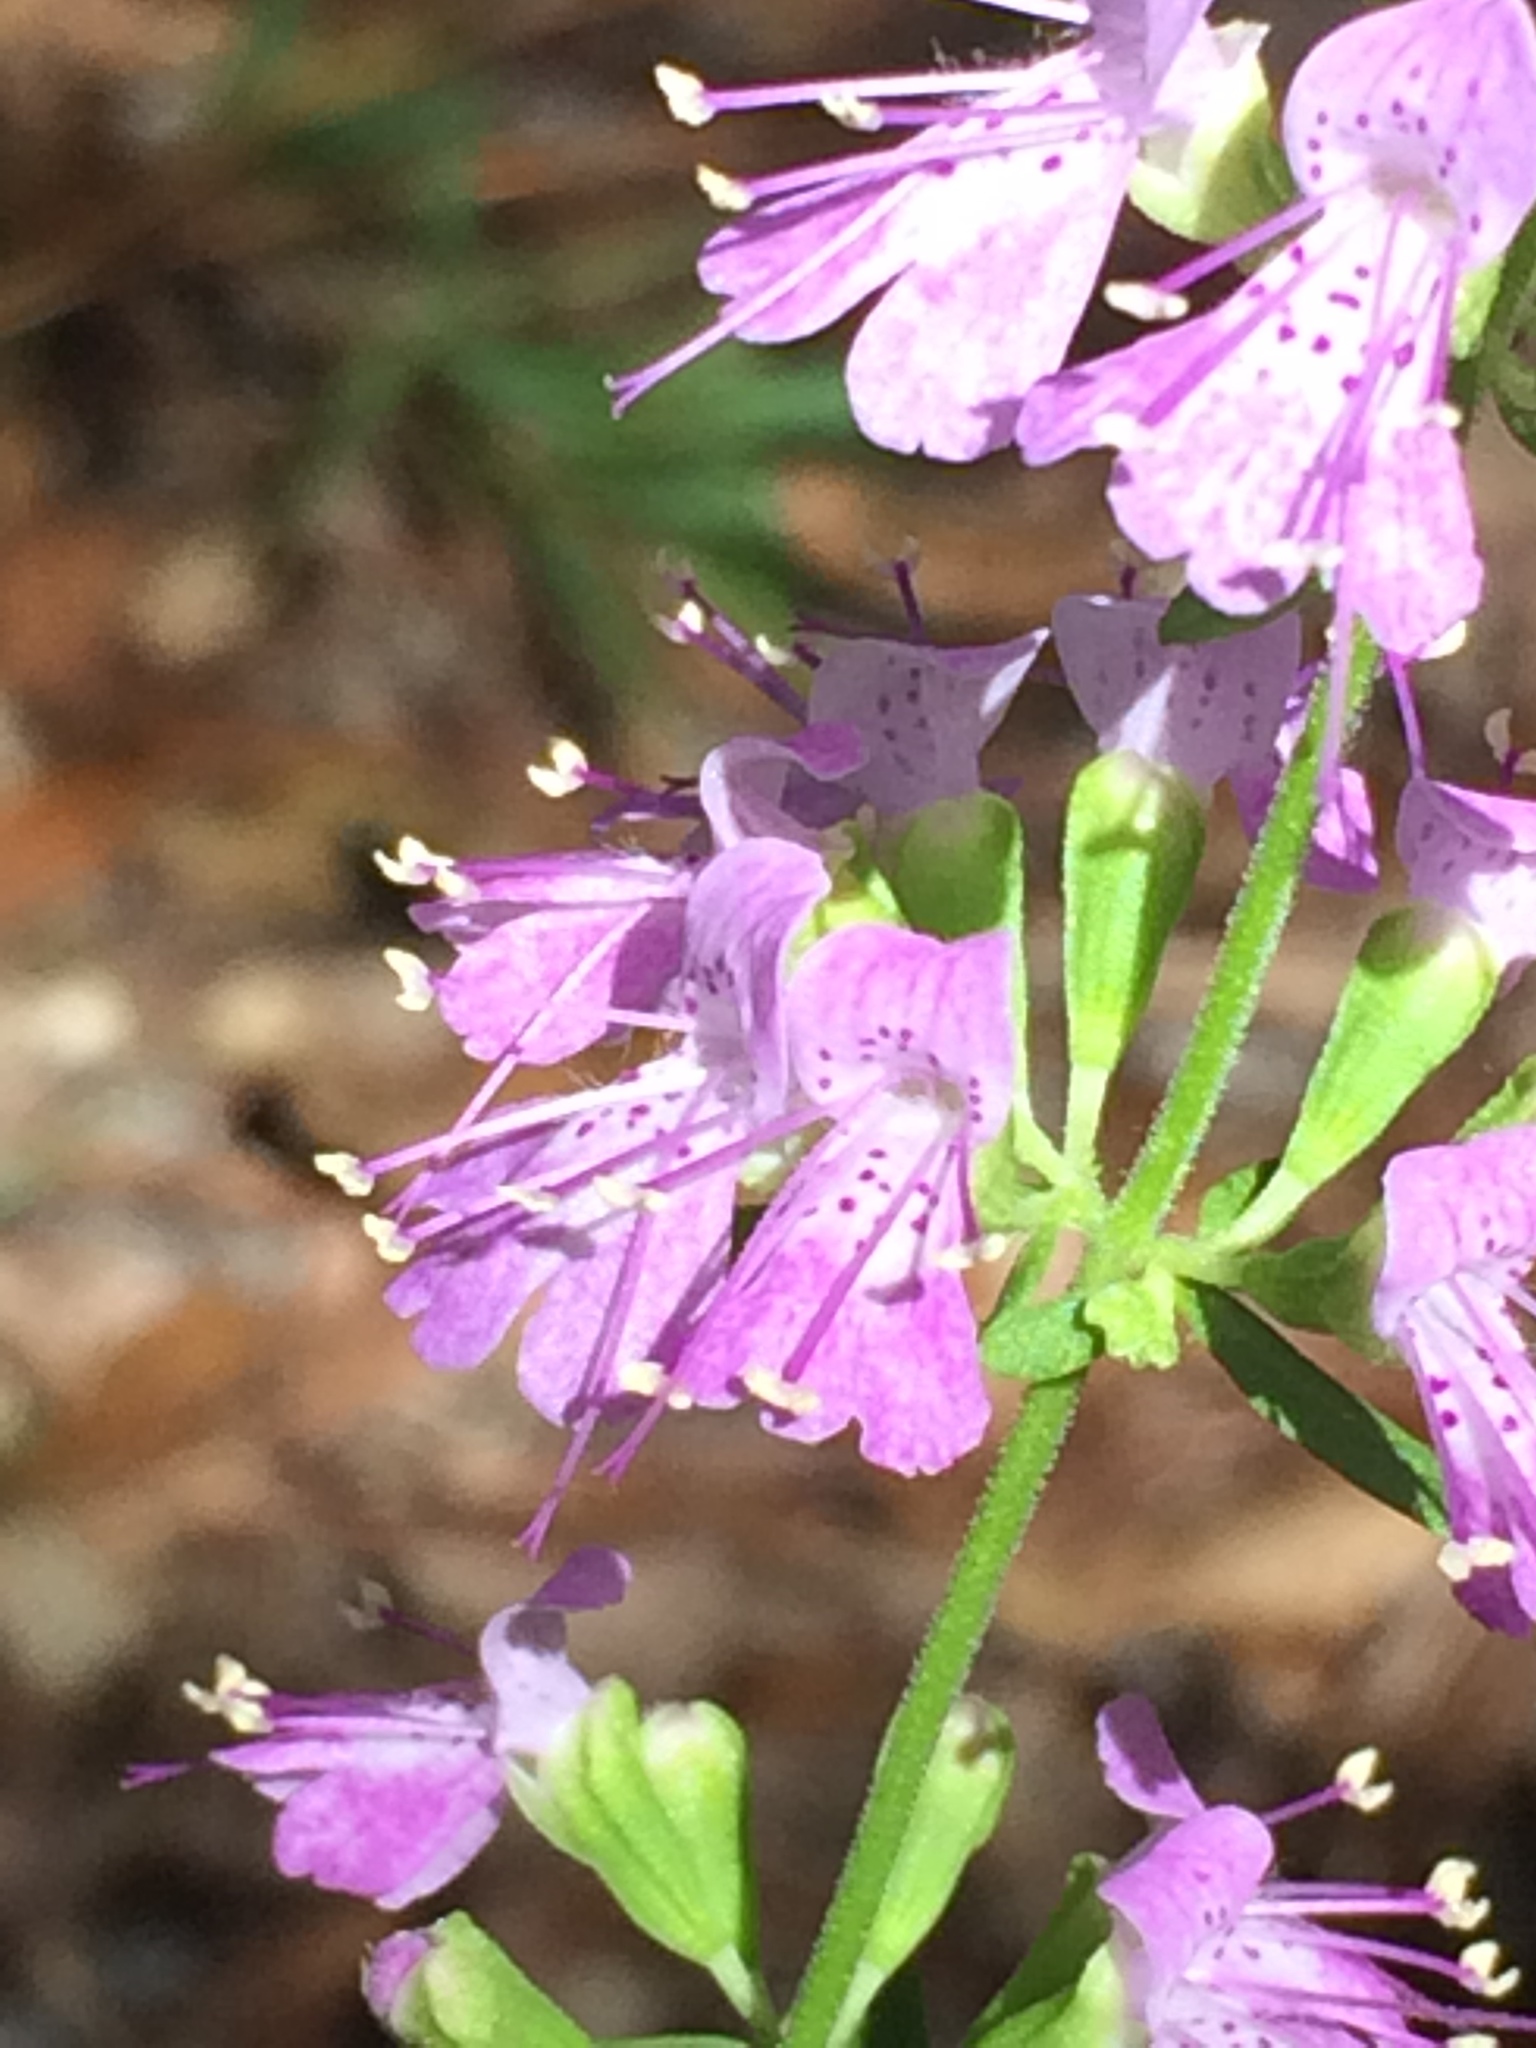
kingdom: Plantae
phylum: Tracheophyta
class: Magnoliopsida
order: Lamiales
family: Lamiaceae
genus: Dicerandra
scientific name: Dicerandra densiflora
